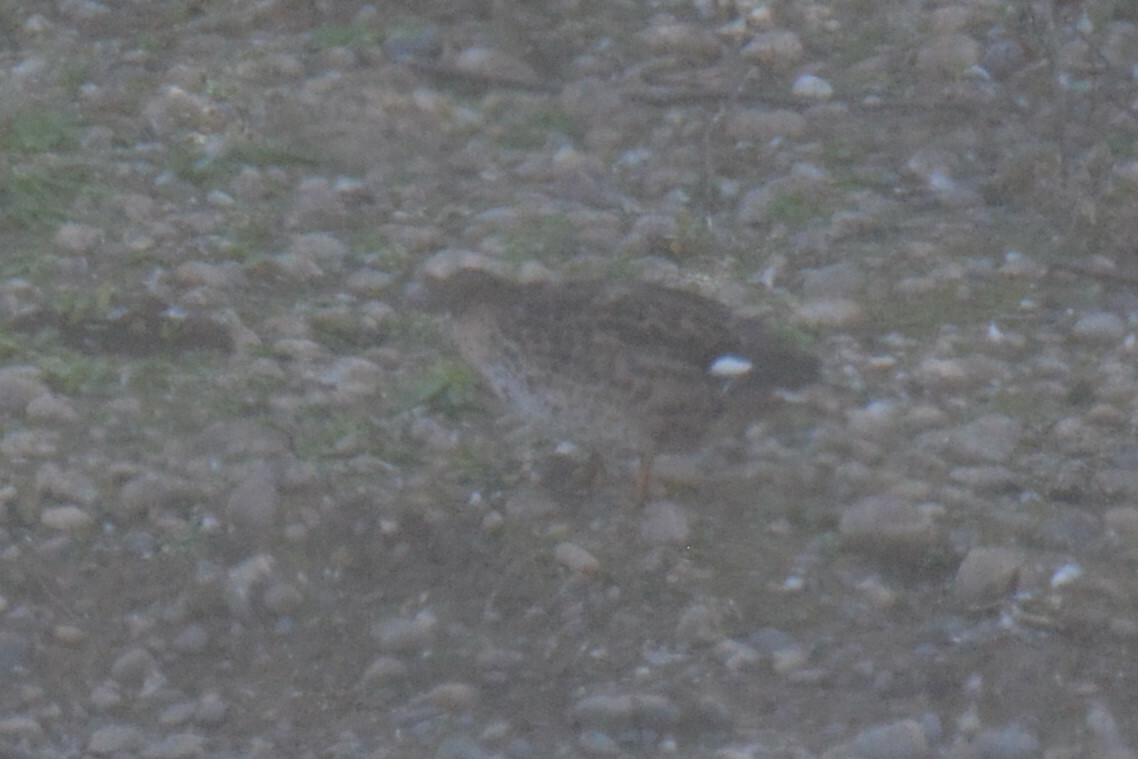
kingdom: Animalia
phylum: Chordata
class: Aves
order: Anseriformes
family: Anatidae
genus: Mareca
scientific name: Mareca strepera
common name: Gadwall
